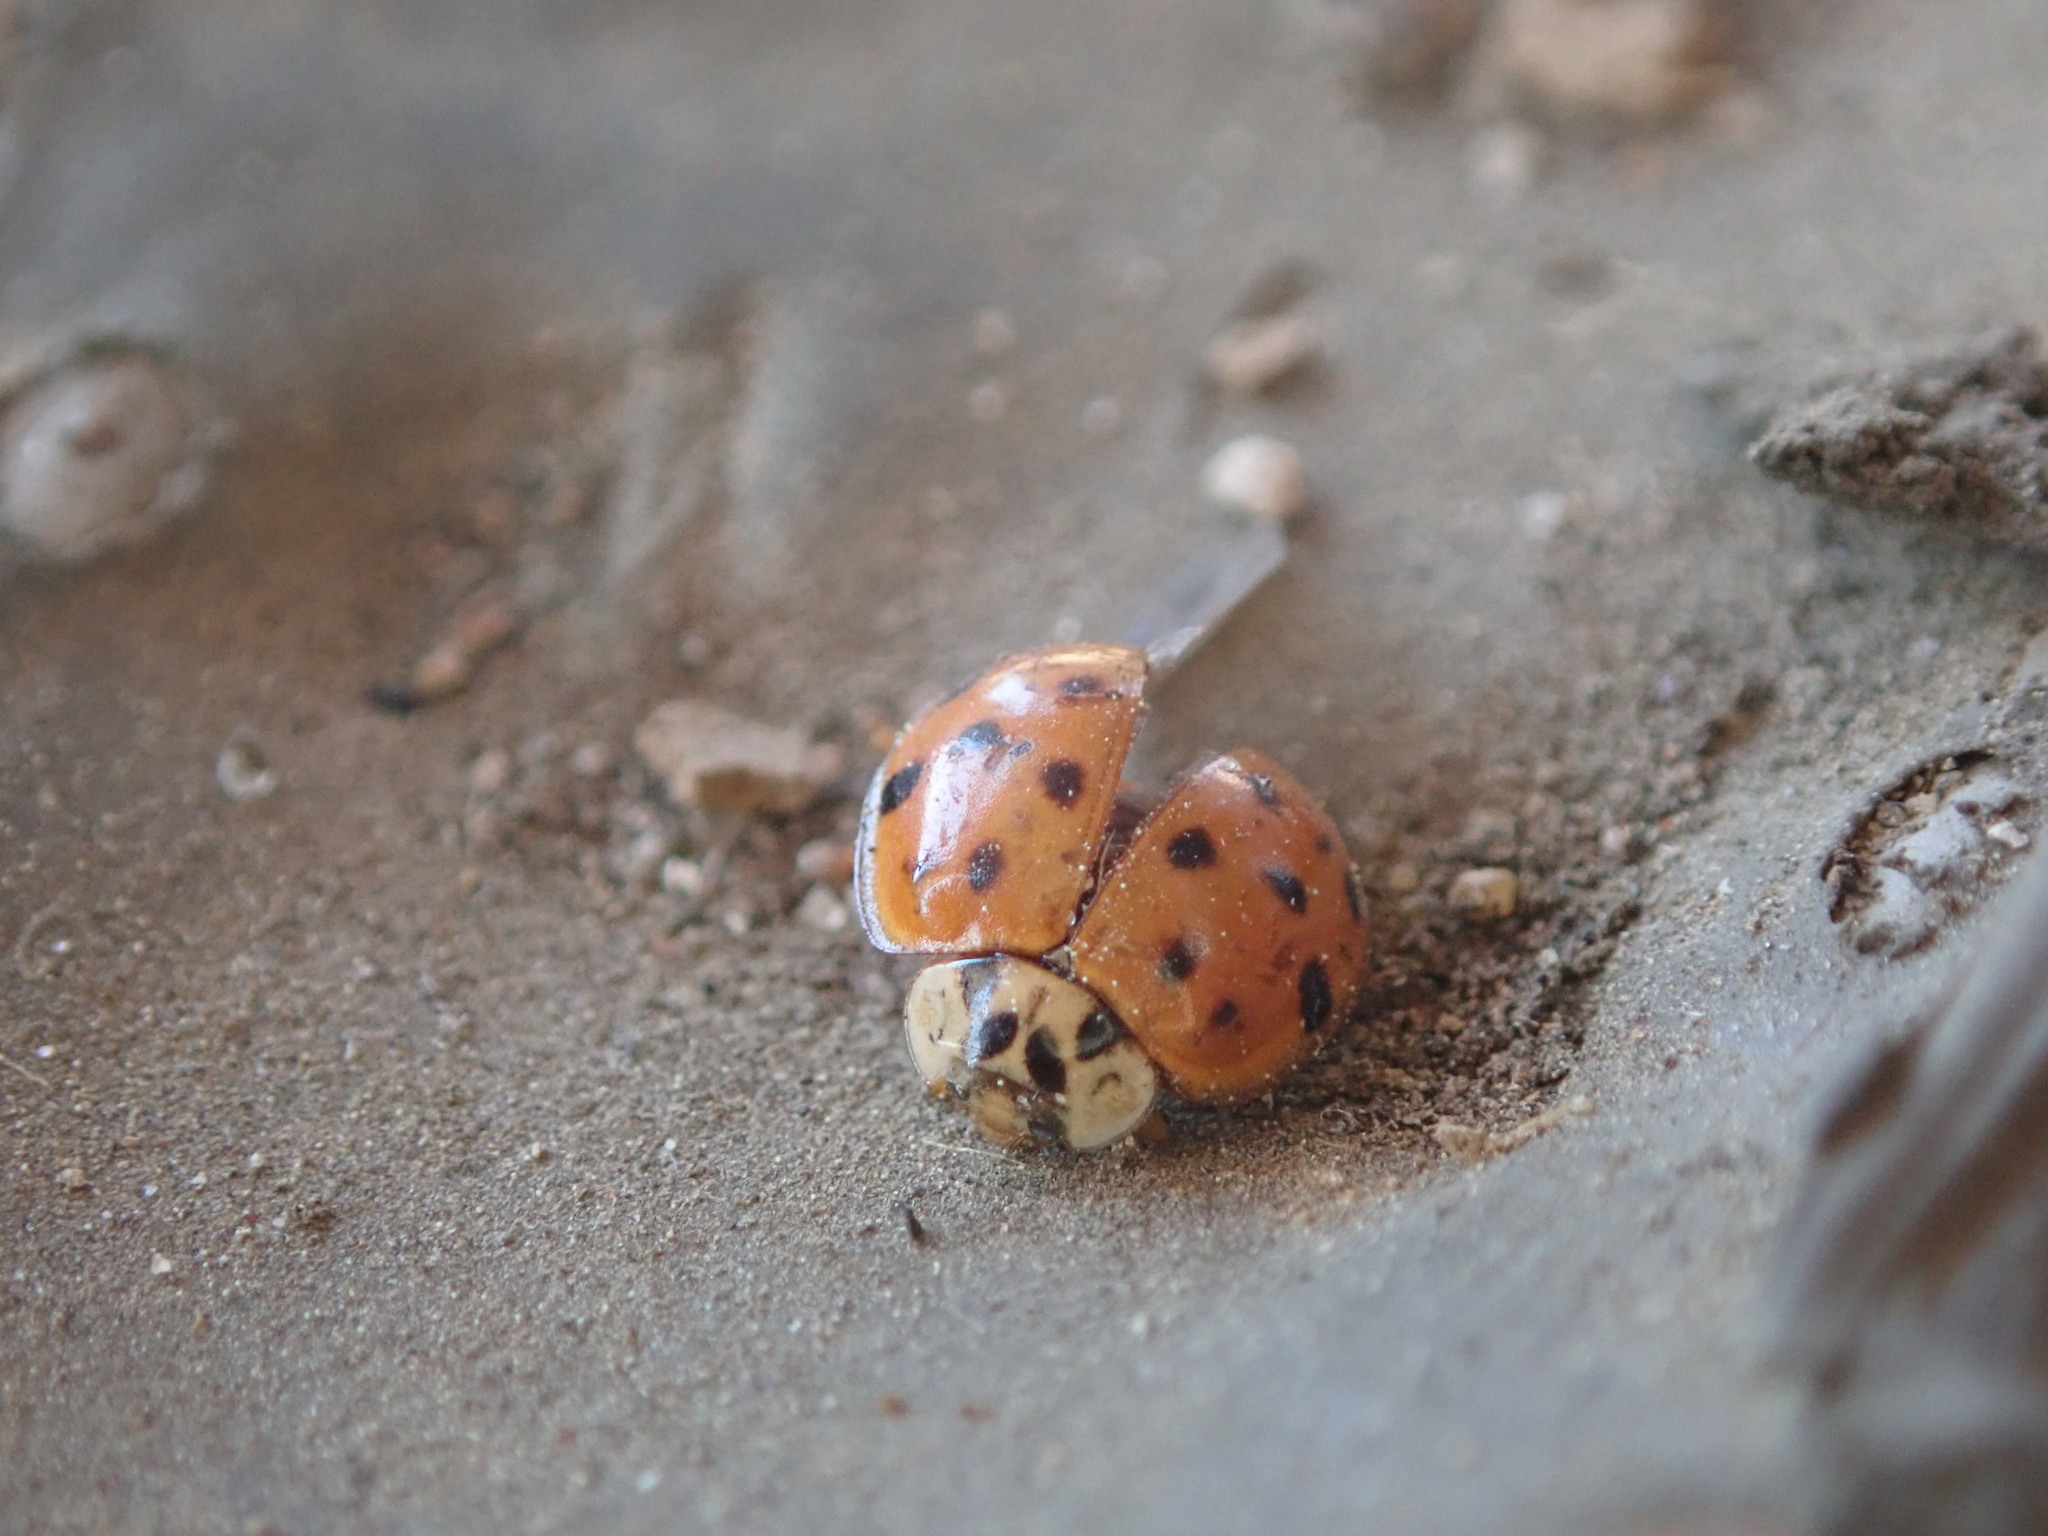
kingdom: Animalia
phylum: Arthropoda
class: Insecta
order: Coleoptera
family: Coccinellidae
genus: Harmonia
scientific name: Harmonia axyridis
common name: Harlequin ladybird
